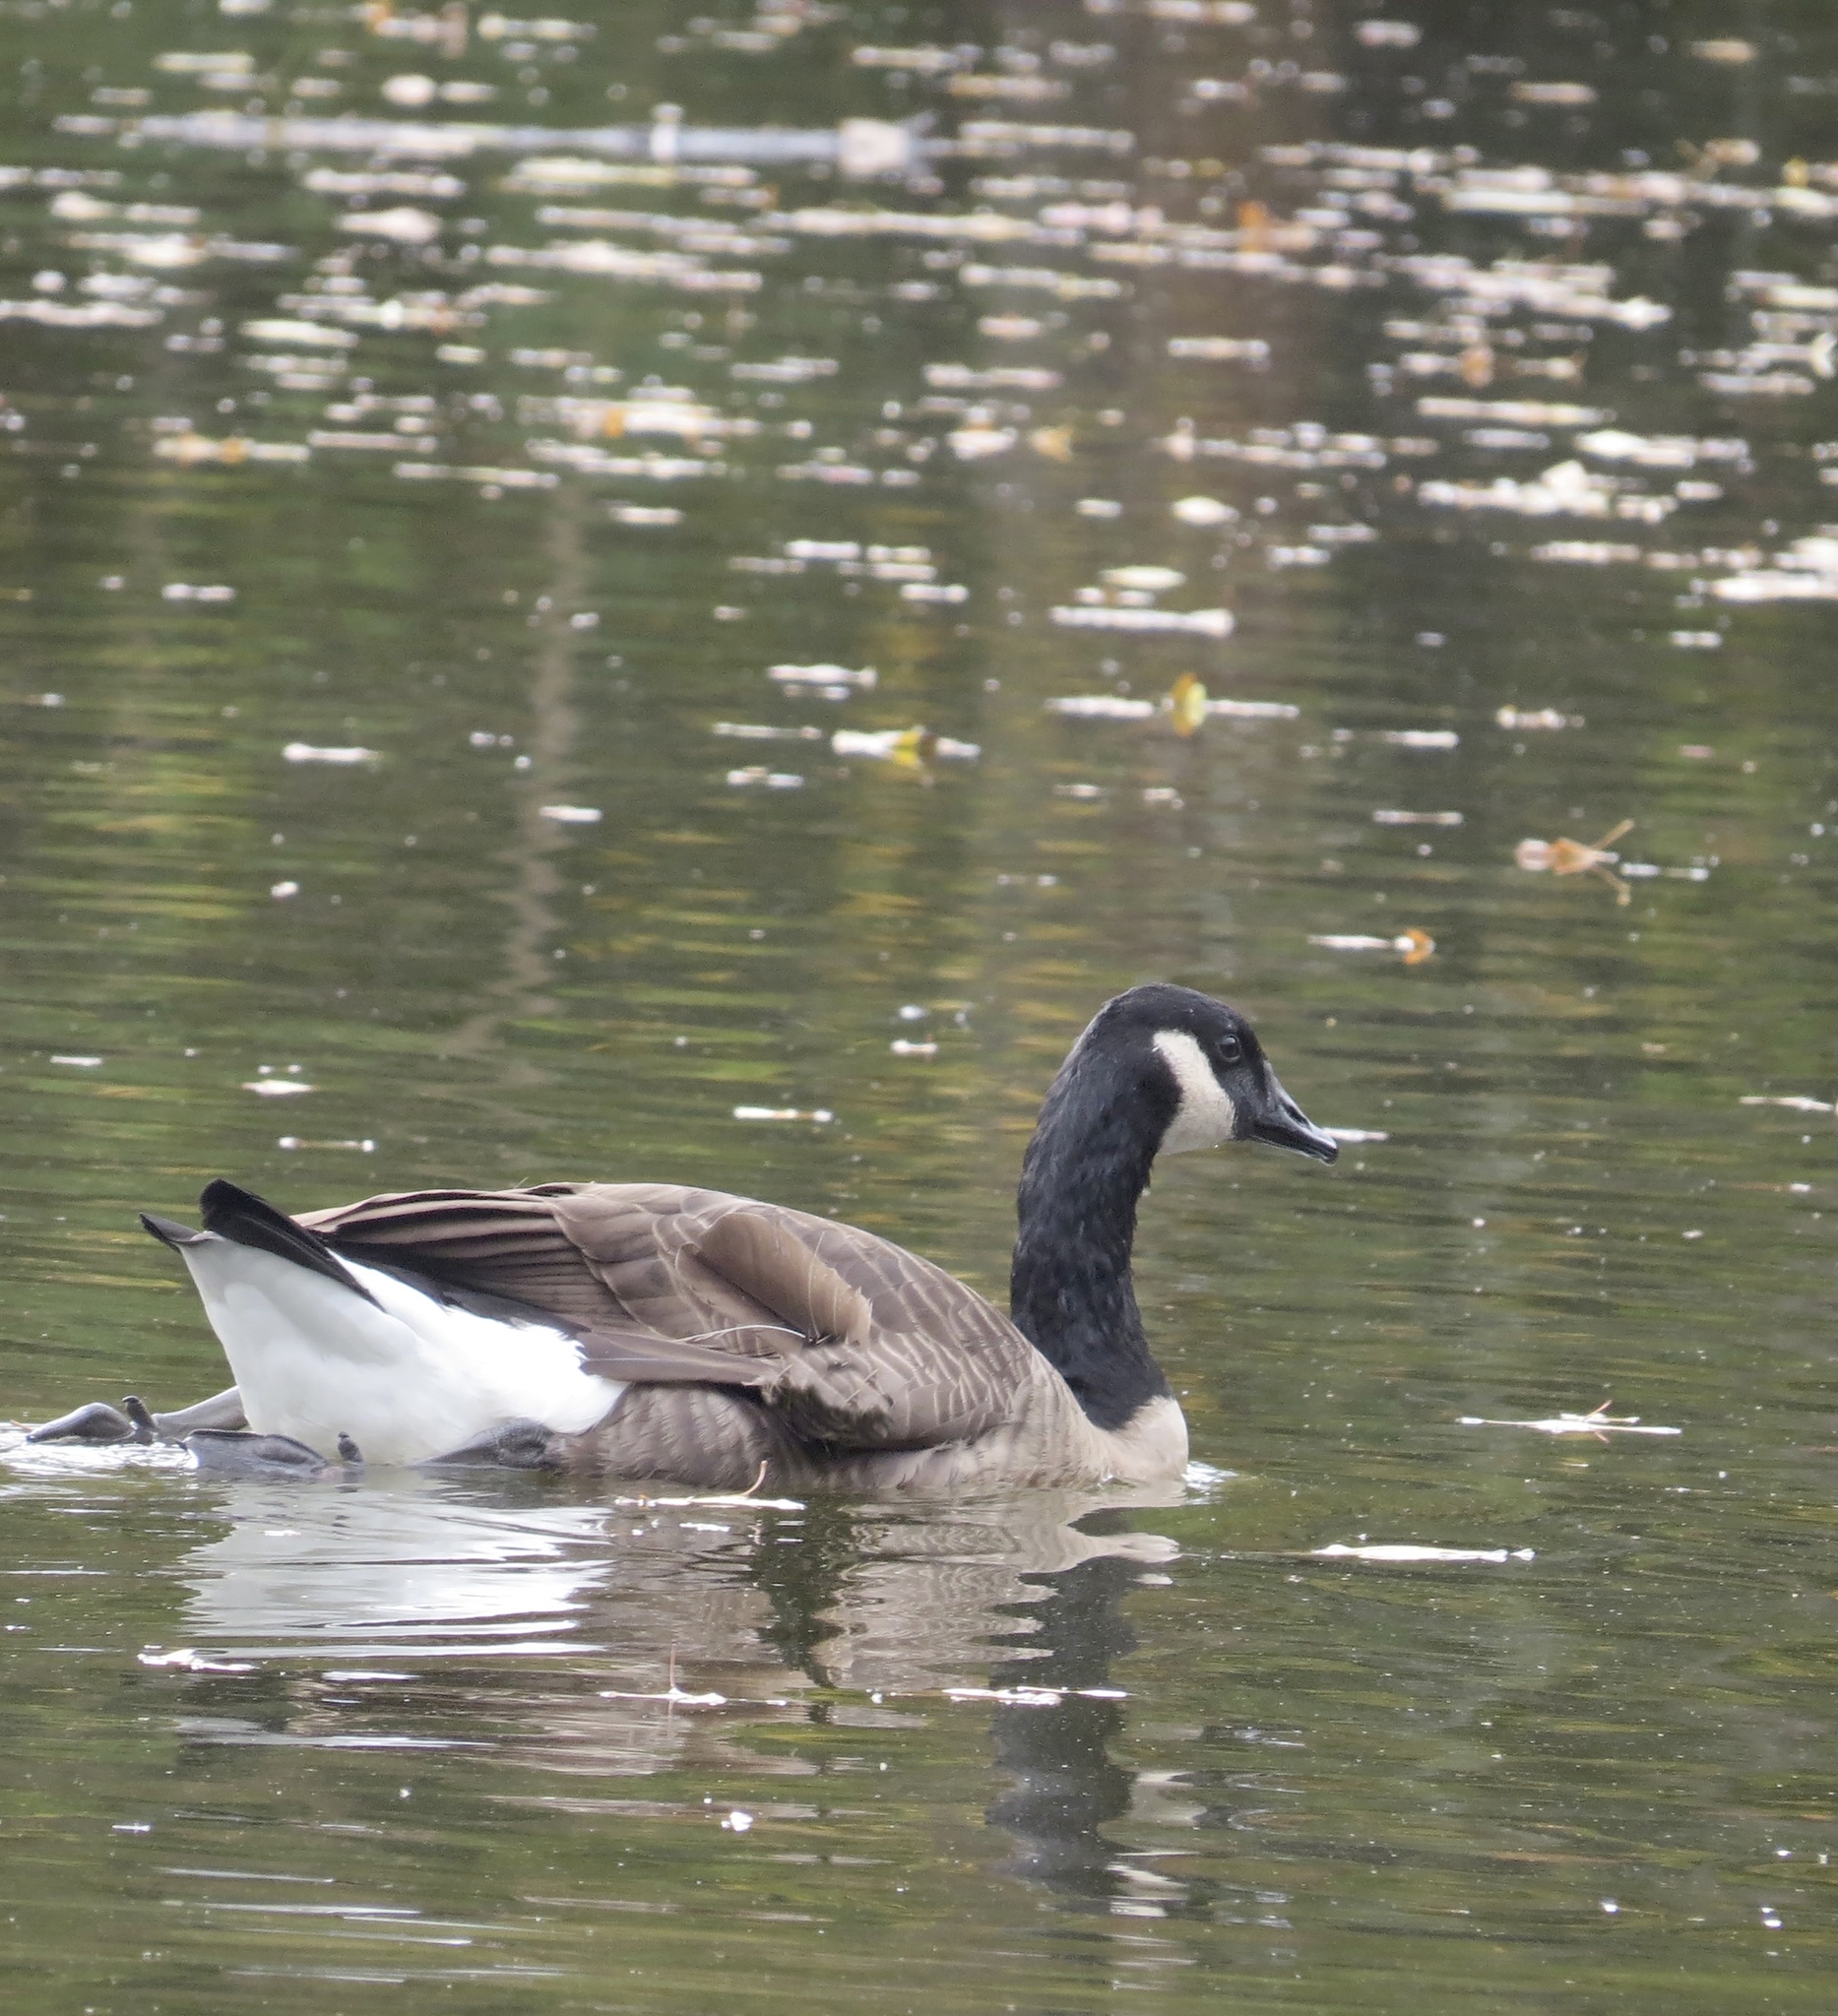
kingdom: Animalia
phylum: Chordata
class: Aves
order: Anseriformes
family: Anatidae
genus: Branta
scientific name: Branta canadensis
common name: Canada goose
